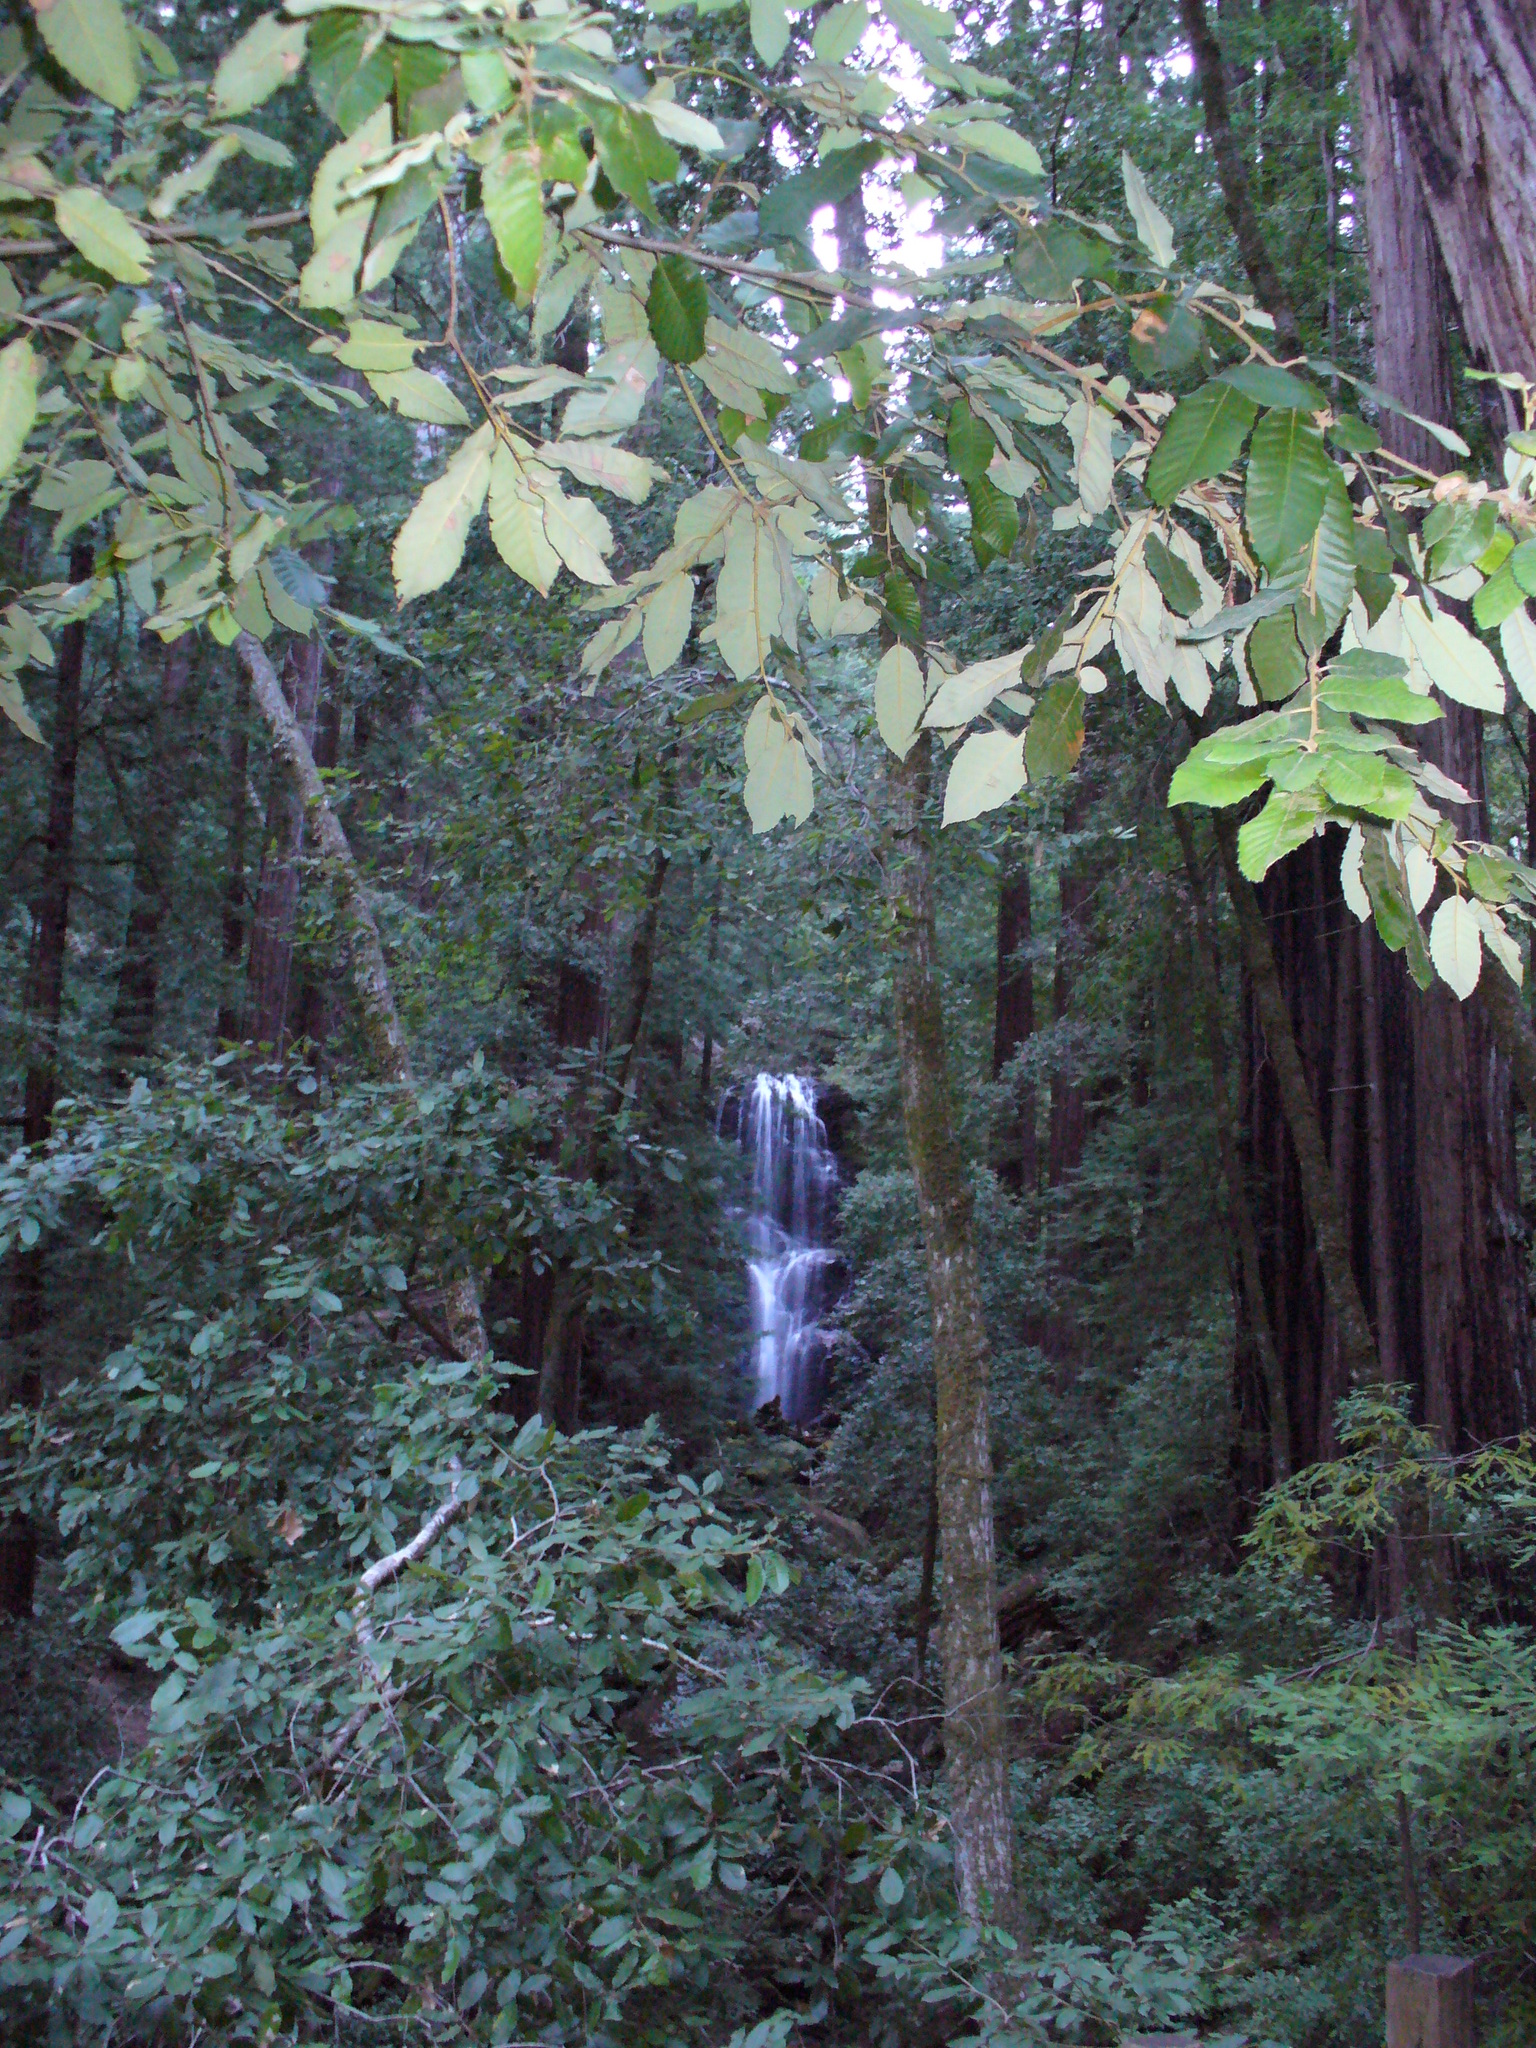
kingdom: Plantae
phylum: Tracheophyta
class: Magnoliopsida
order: Fagales
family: Fagaceae
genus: Notholithocarpus
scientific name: Notholithocarpus densiflorus
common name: Tan bark oak
